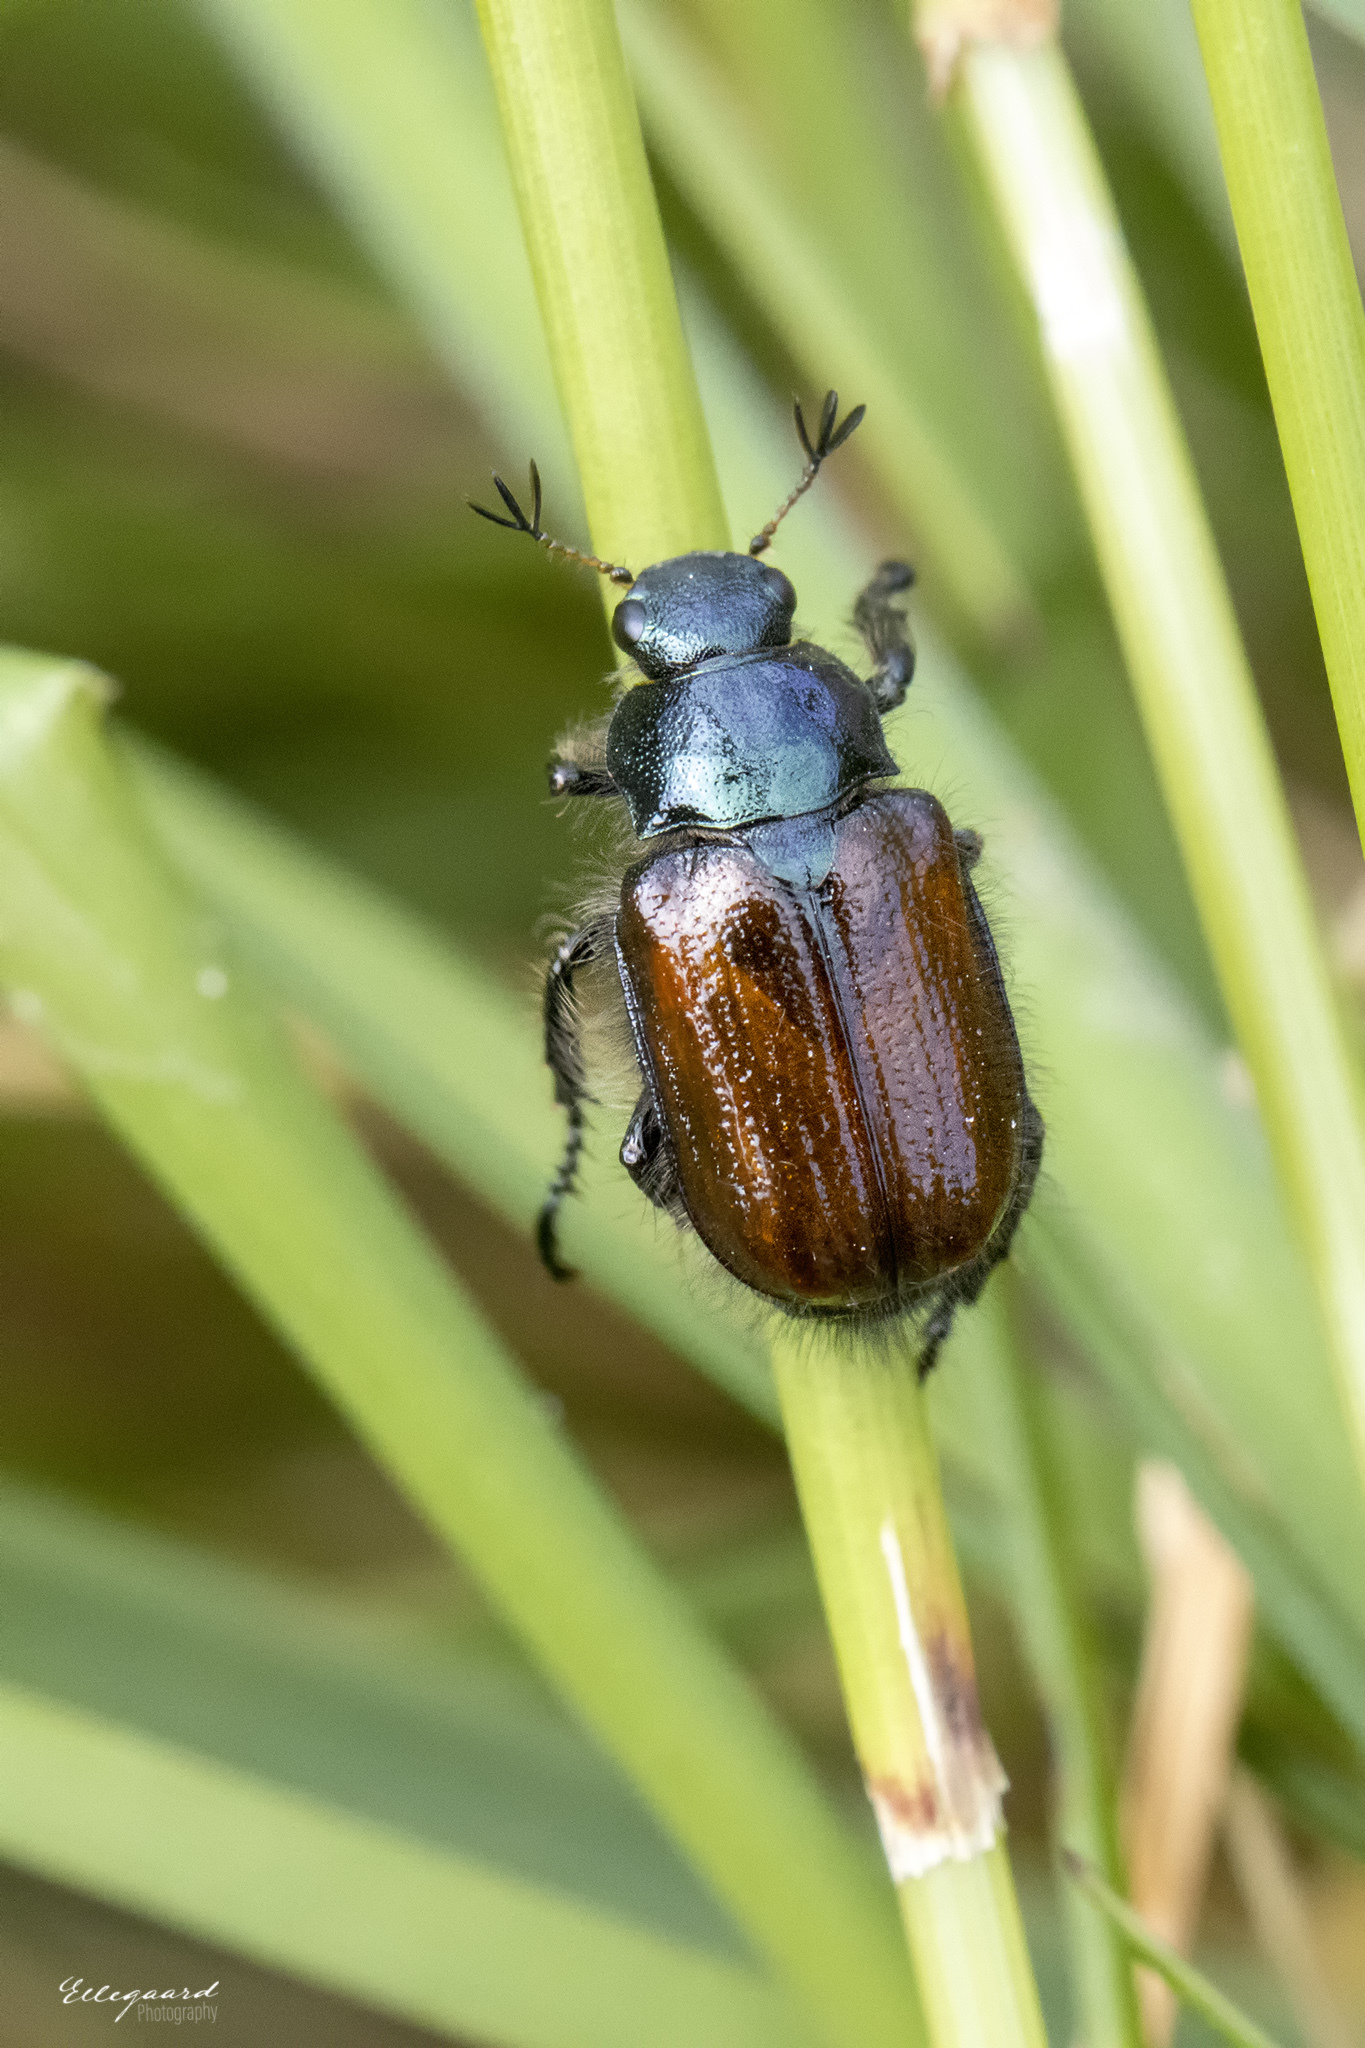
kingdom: Animalia
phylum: Arthropoda
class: Insecta
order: Coleoptera
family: Scarabaeidae
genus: Phyllopertha
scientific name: Phyllopertha horticola
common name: Garden chafer
